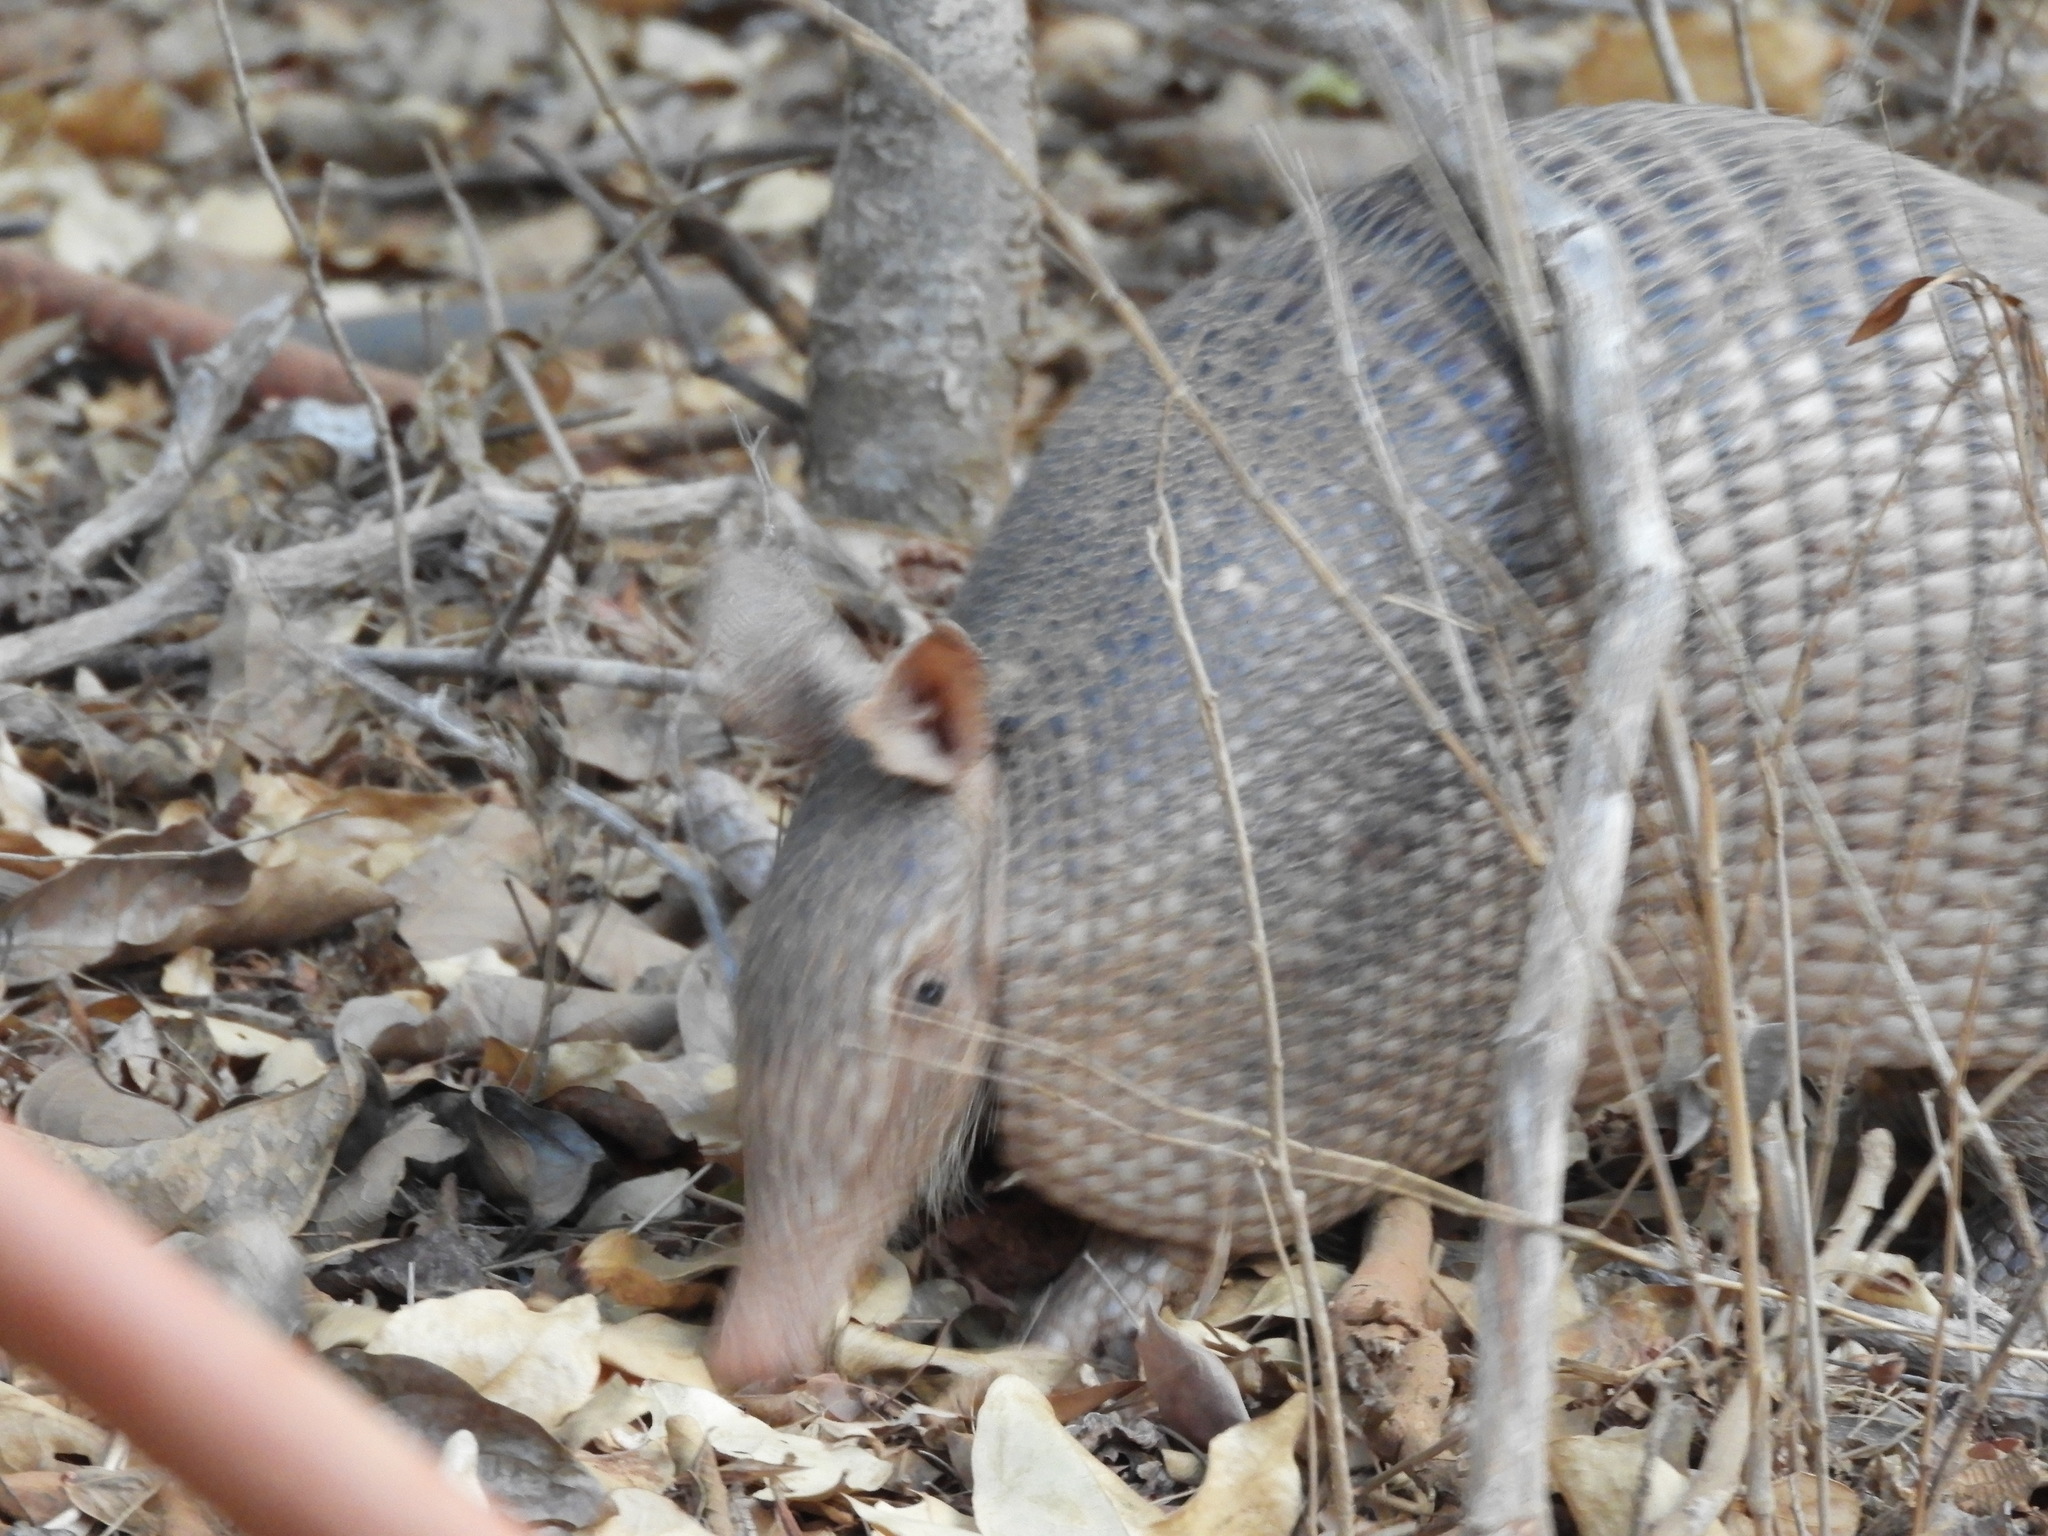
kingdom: Animalia
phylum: Chordata
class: Mammalia
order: Cingulata
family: Dasypodidae
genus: Dasypus
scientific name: Dasypus novemcinctus
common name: Nine-banded armadillo
